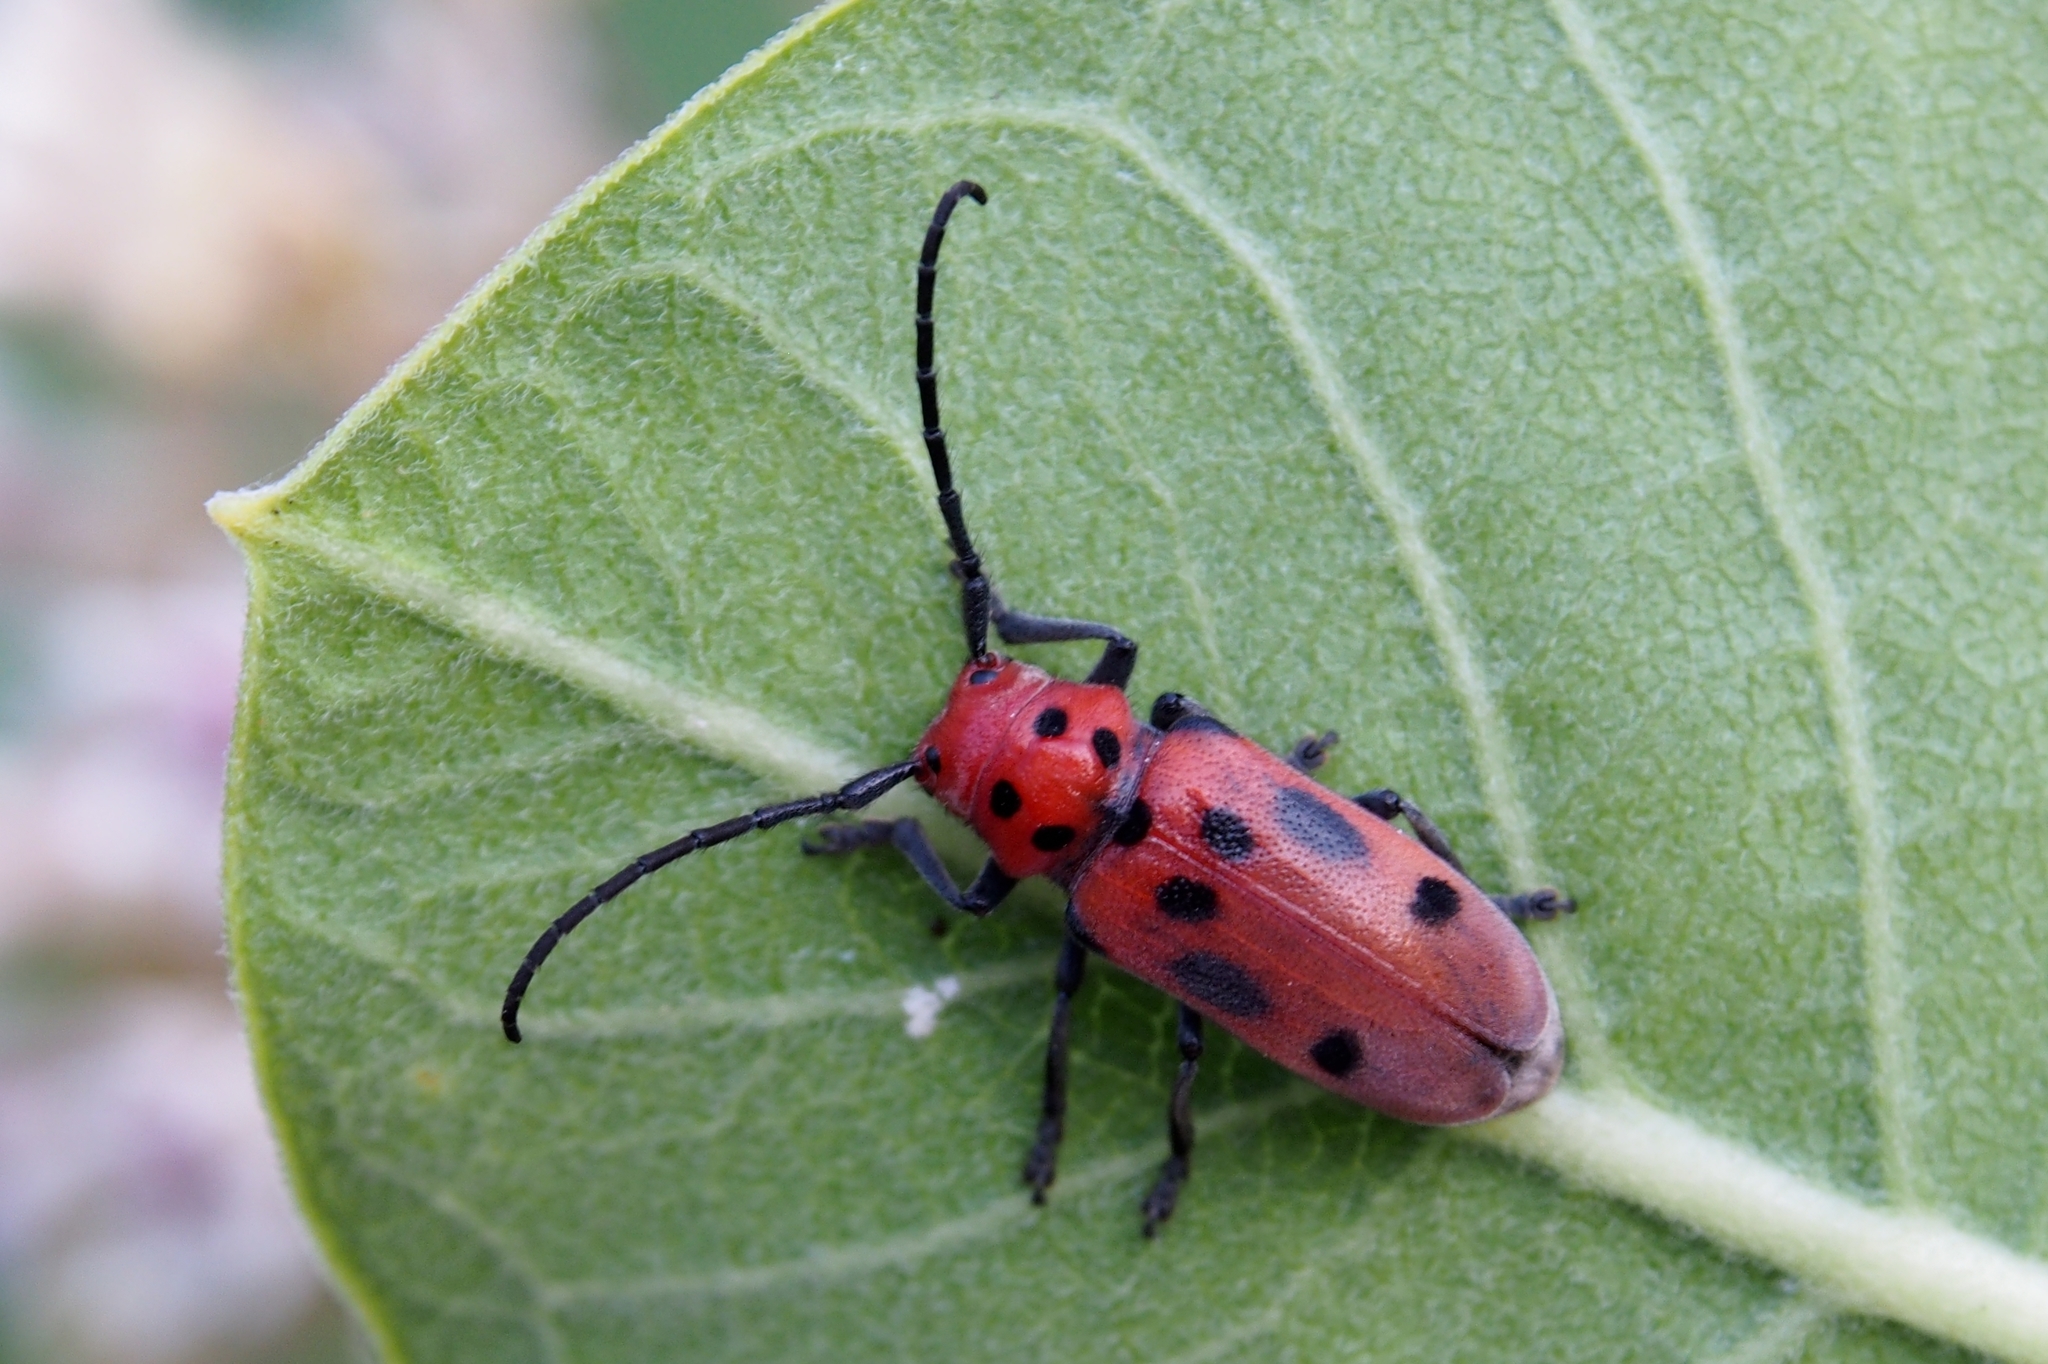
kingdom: Animalia
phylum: Arthropoda
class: Insecta
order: Coleoptera
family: Cerambycidae
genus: Tetraopes
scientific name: Tetraopes tetrophthalmus
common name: Red milkweed beetle
